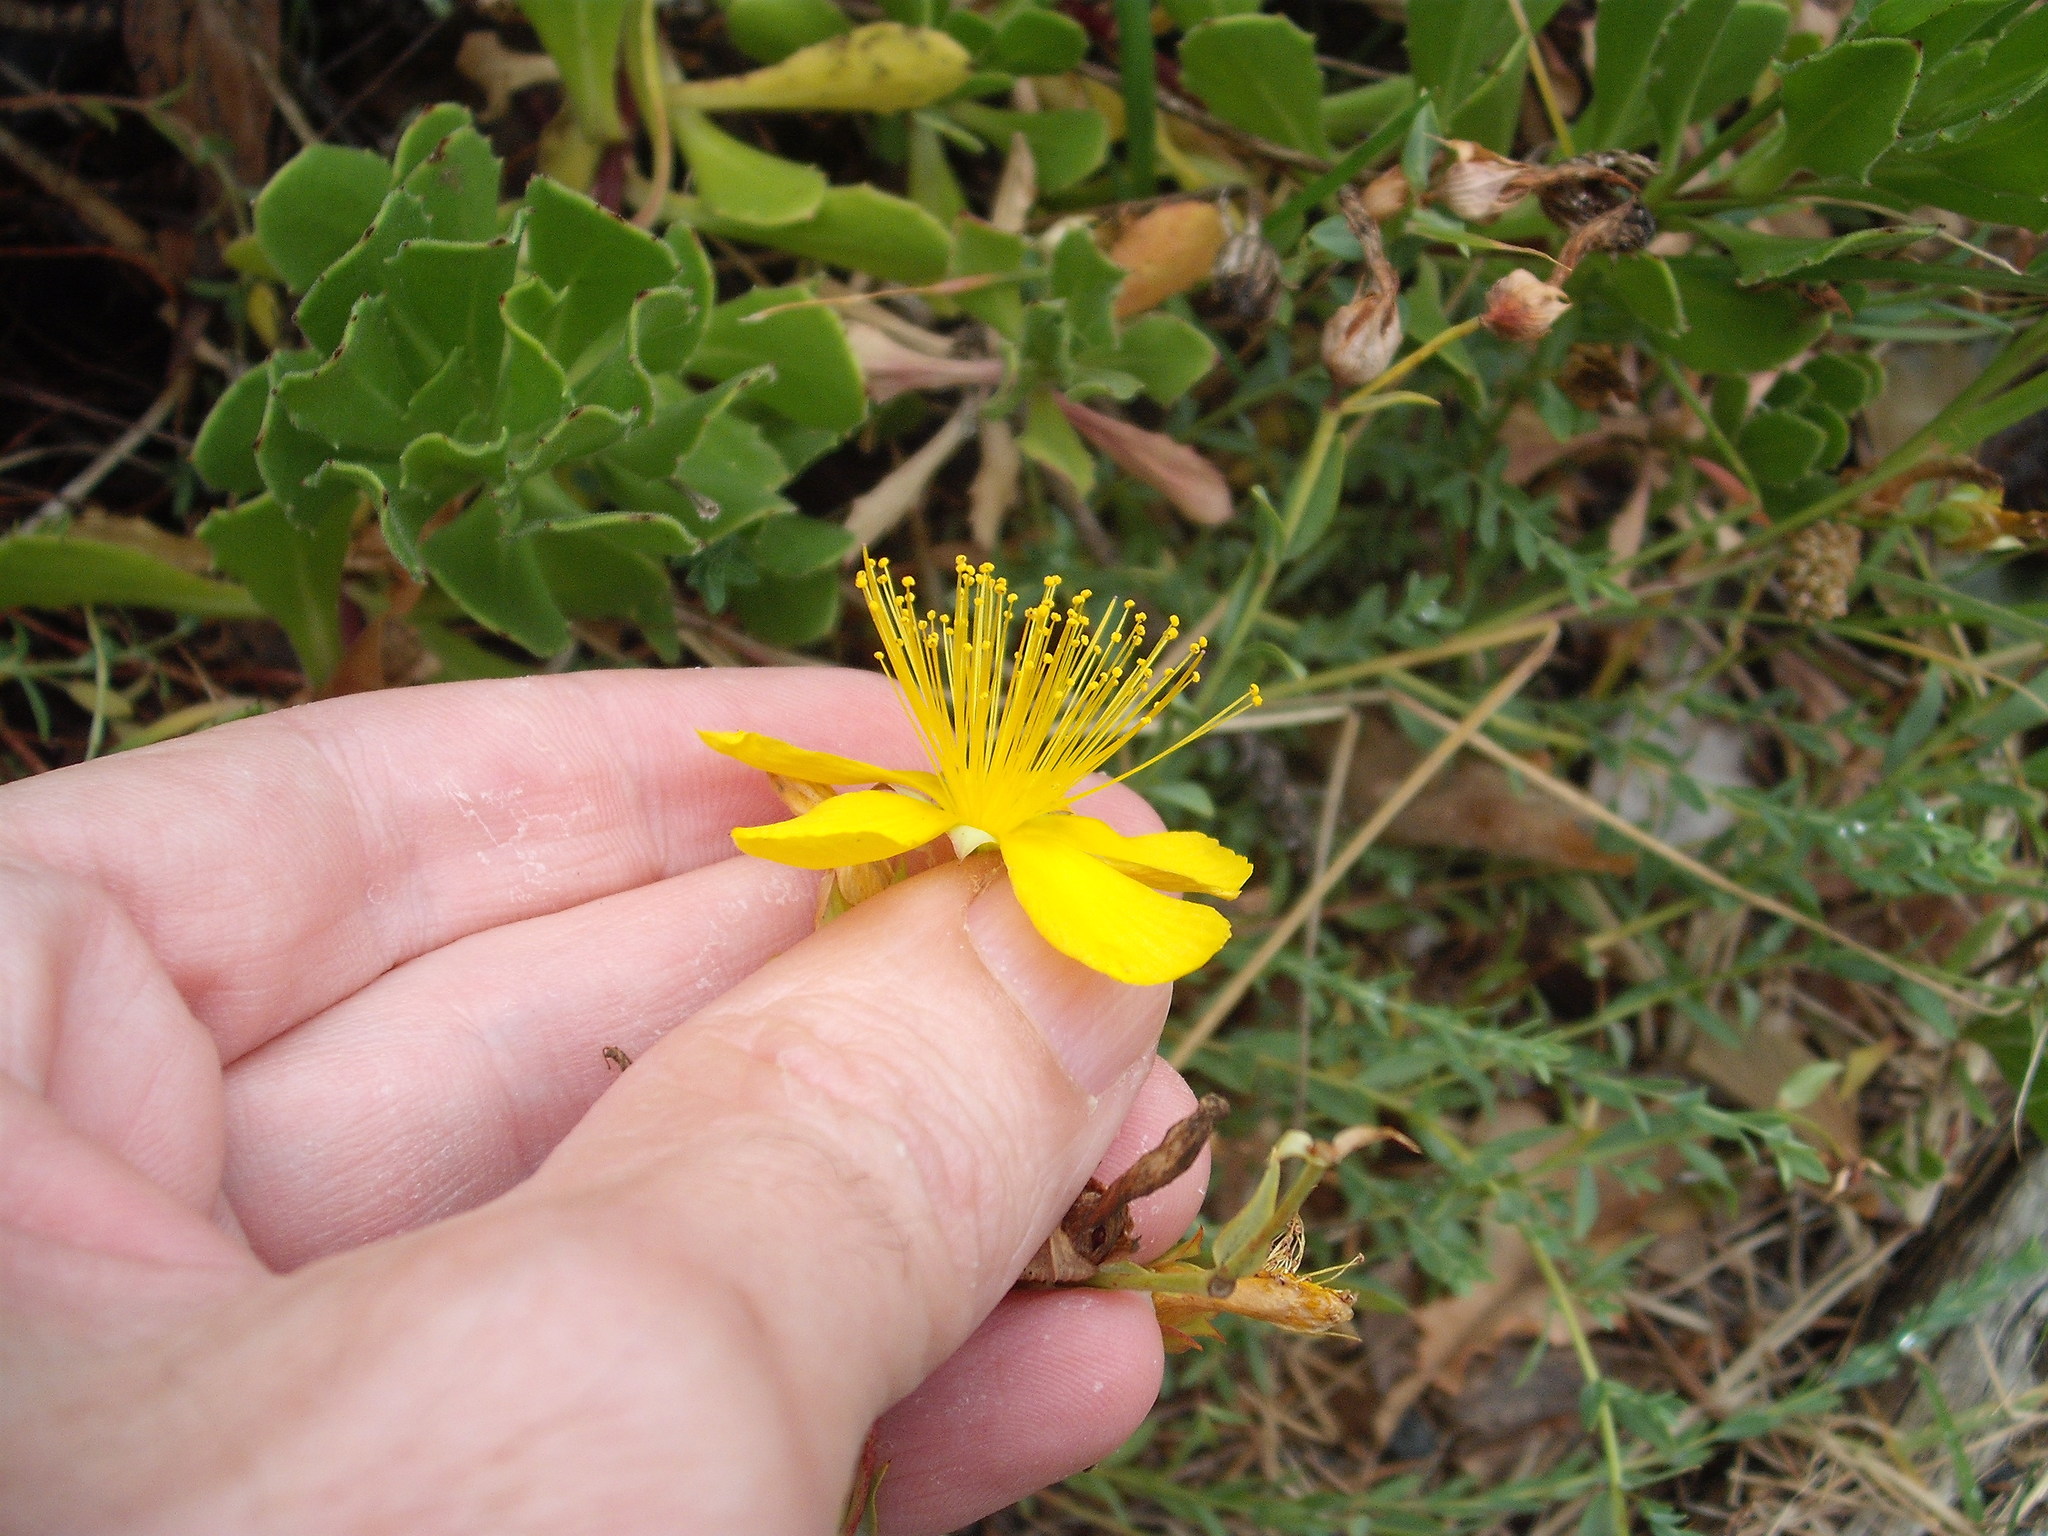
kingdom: Plantae
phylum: Tracheophyta
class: Magnoliopsida
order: Malpighiales
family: Hypericaceae
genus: Hypericum
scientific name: Hypericum olympicum
